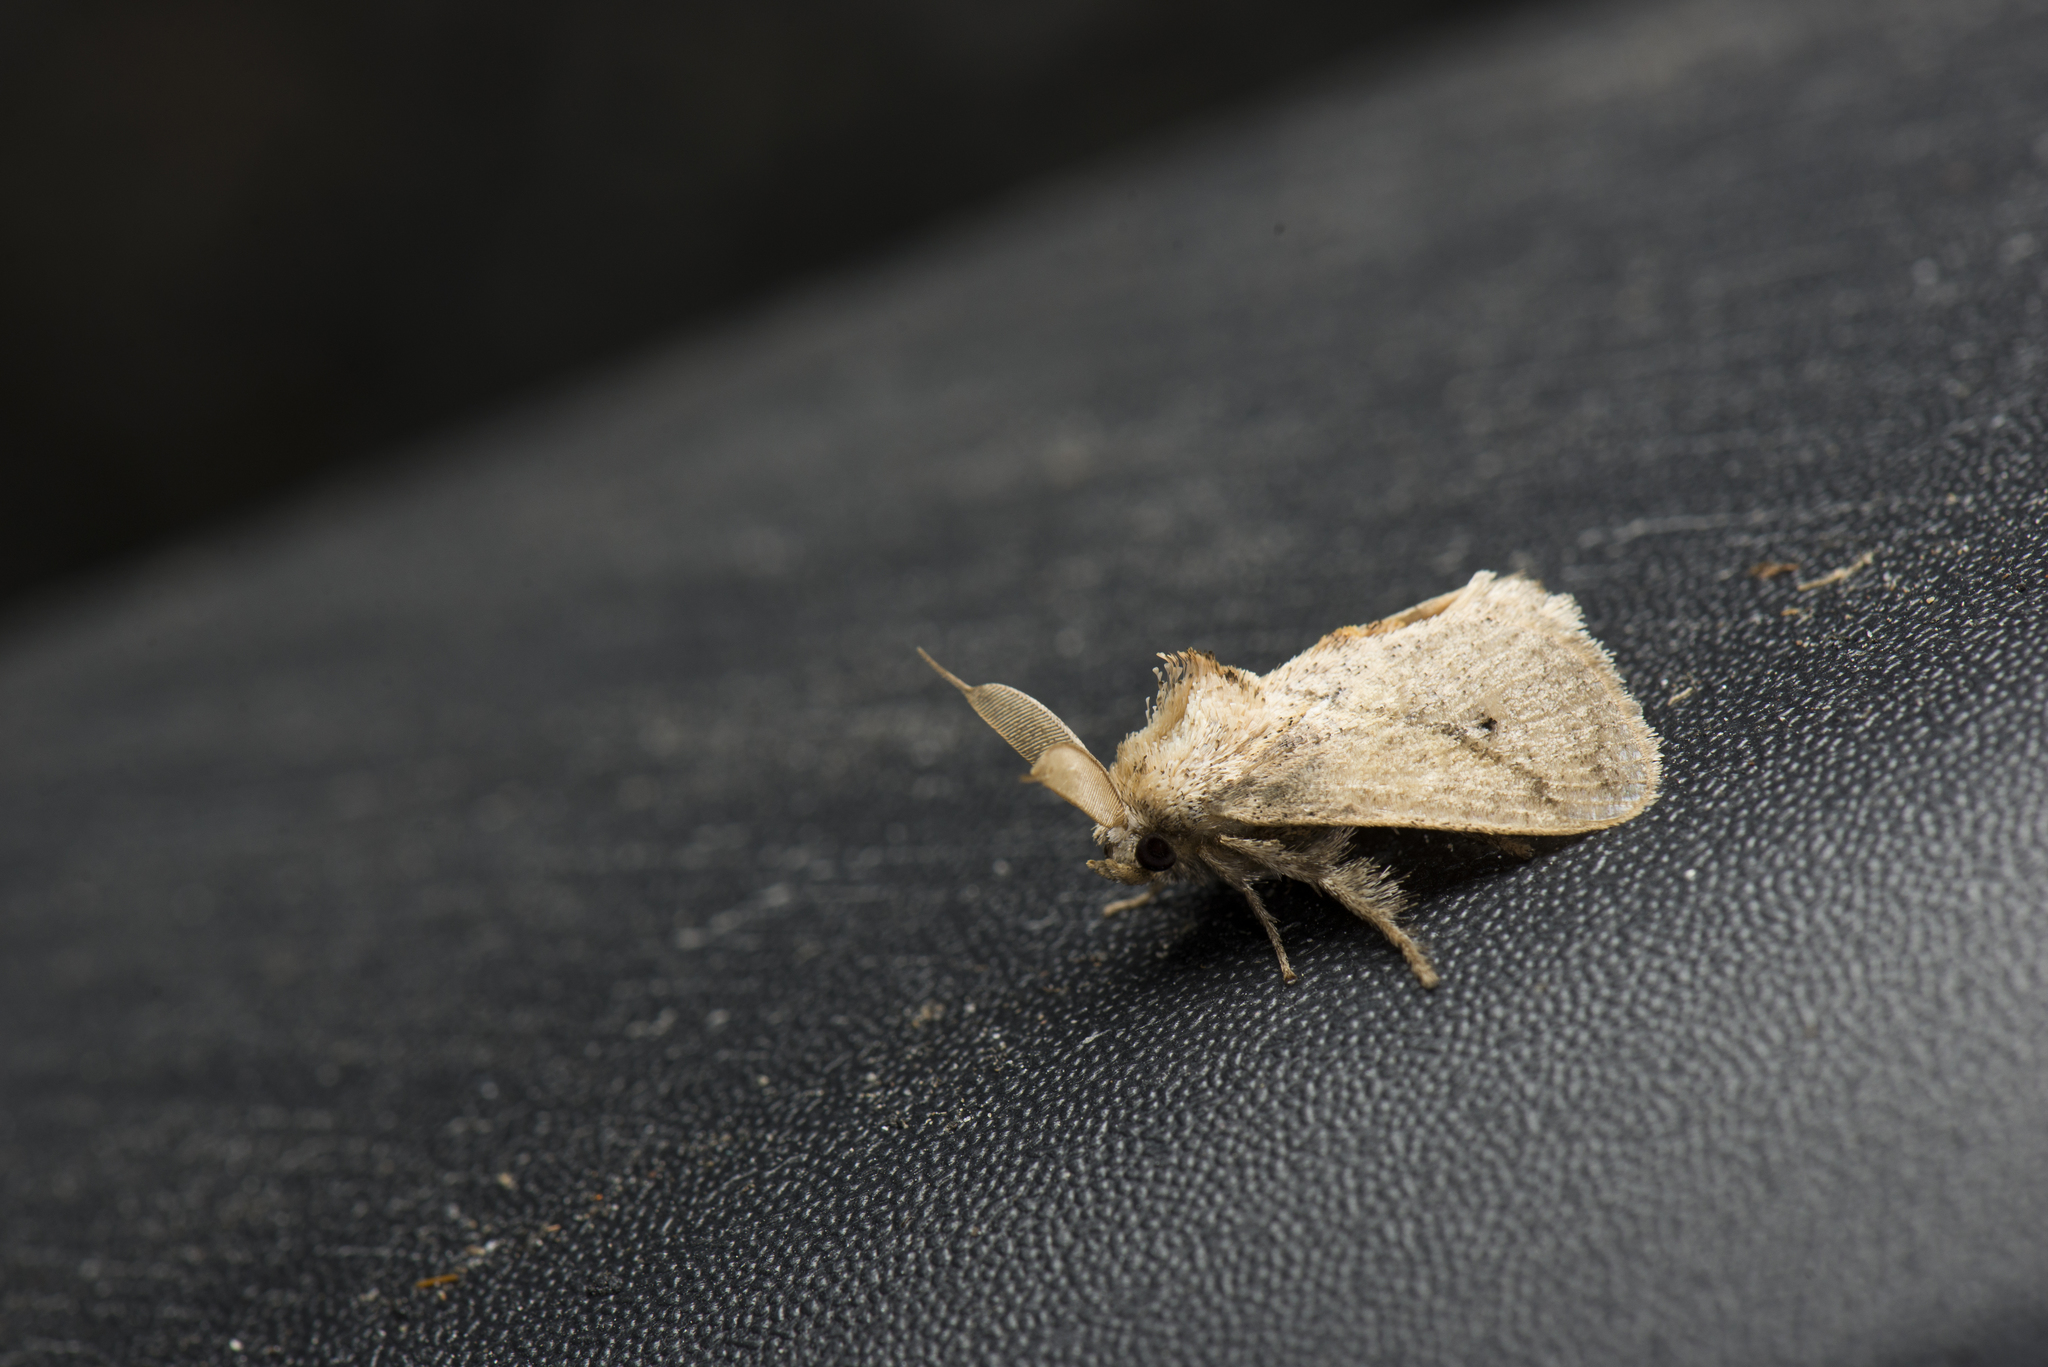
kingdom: Animalia
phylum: Arthropoda
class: Insecta
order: Lepidoptera
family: Limacodidae
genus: Susica
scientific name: Susica sinensis
